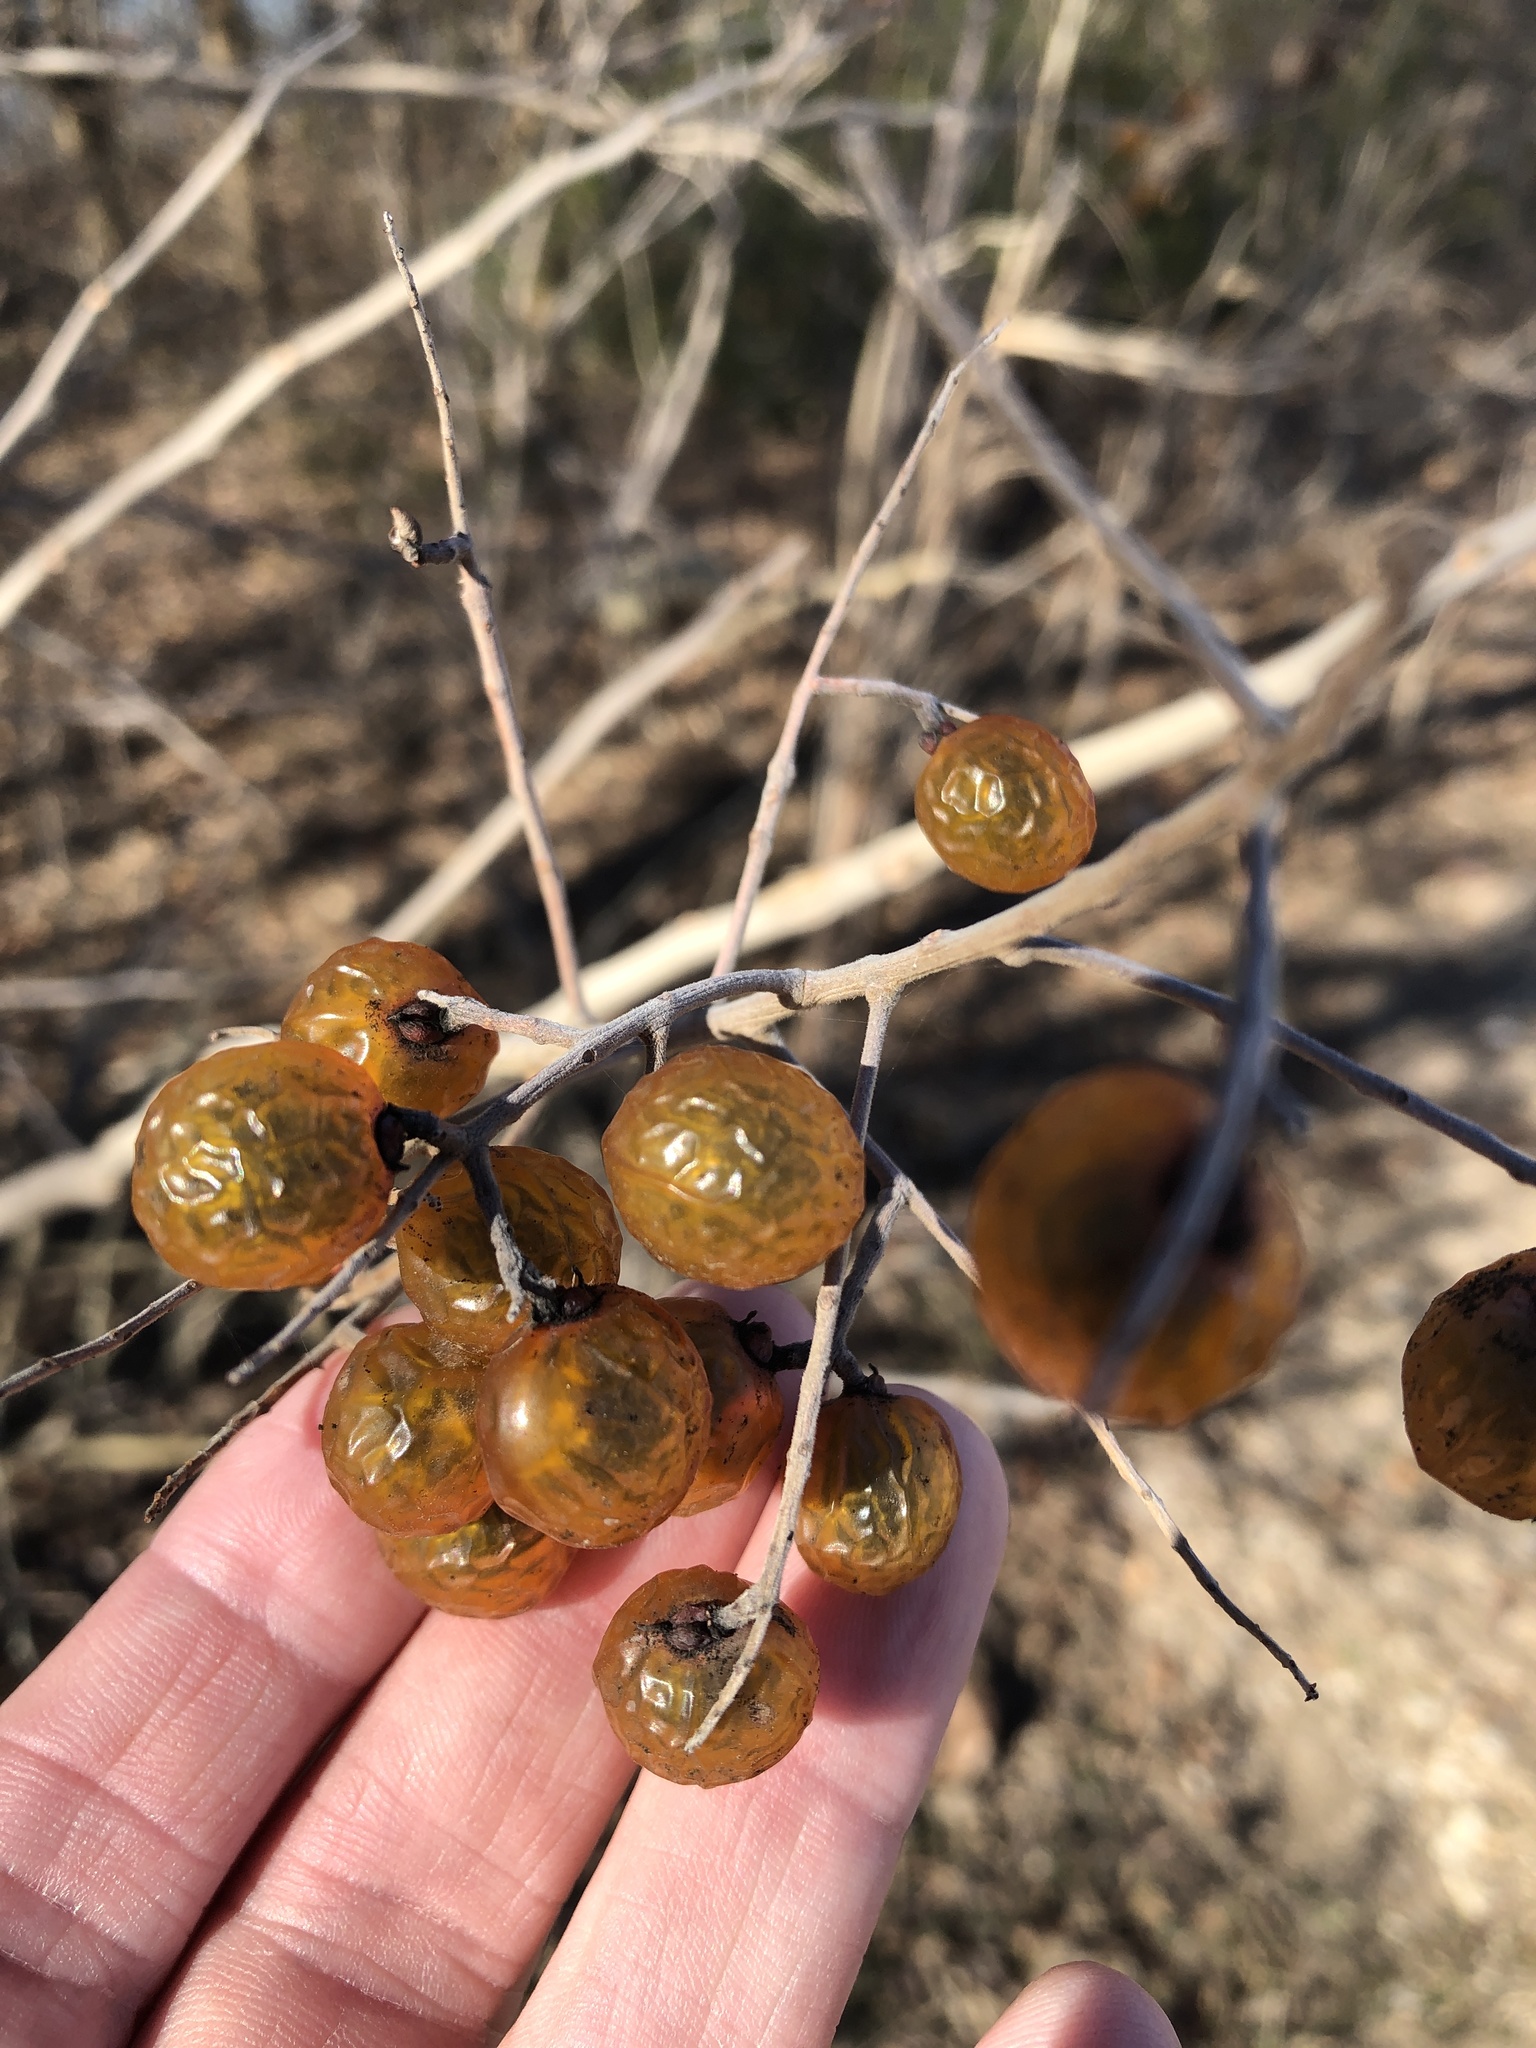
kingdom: Plantae
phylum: Tracheophyta
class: Magnoliopsida
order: Sapindales
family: Sapindaceae
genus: Sapindus
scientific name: Sapindus drummondii
